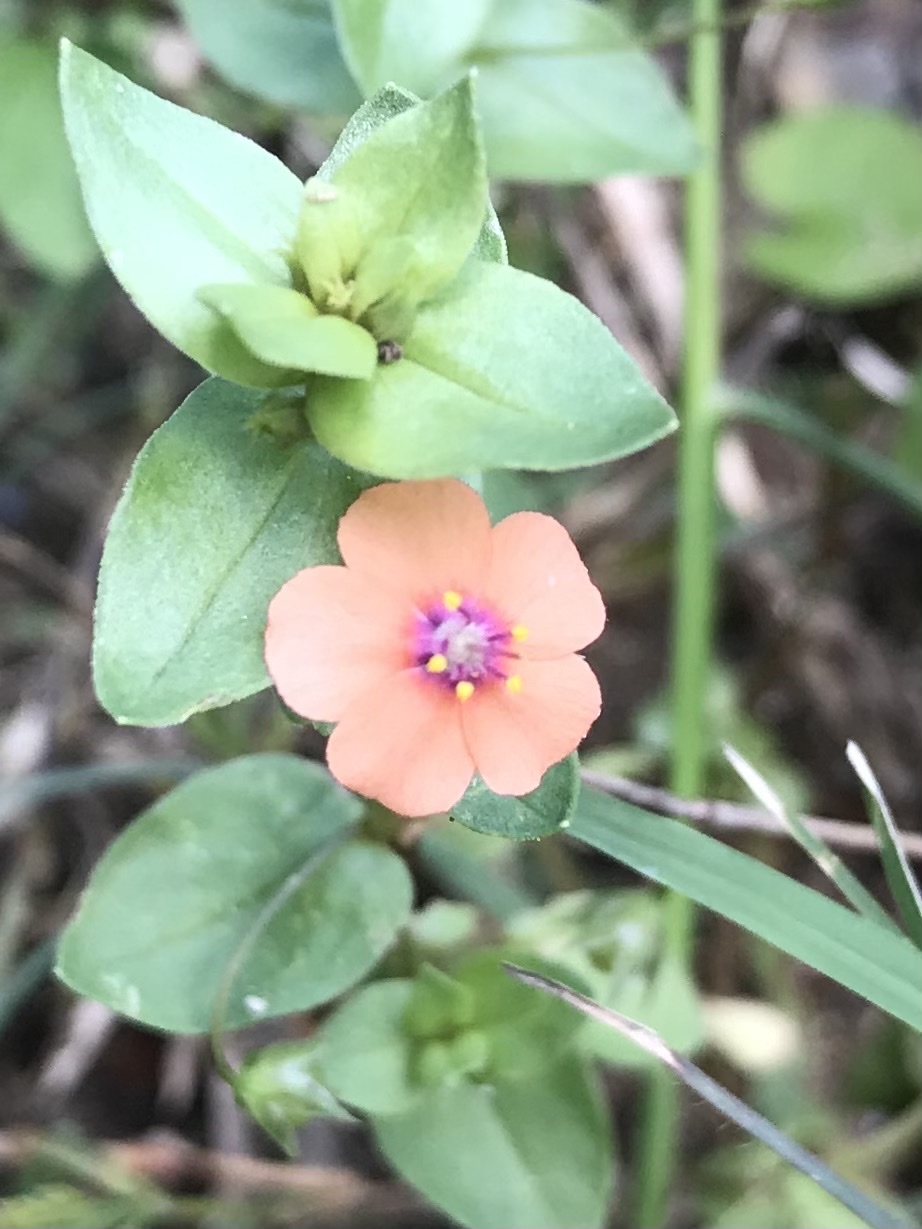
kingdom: Plantae
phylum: Tracheophyta
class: Magnoliopsida
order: Ericales
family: Primulaceae
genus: Lysimachia
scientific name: Lysimachia arvensis
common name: Scarlet pimpernel
